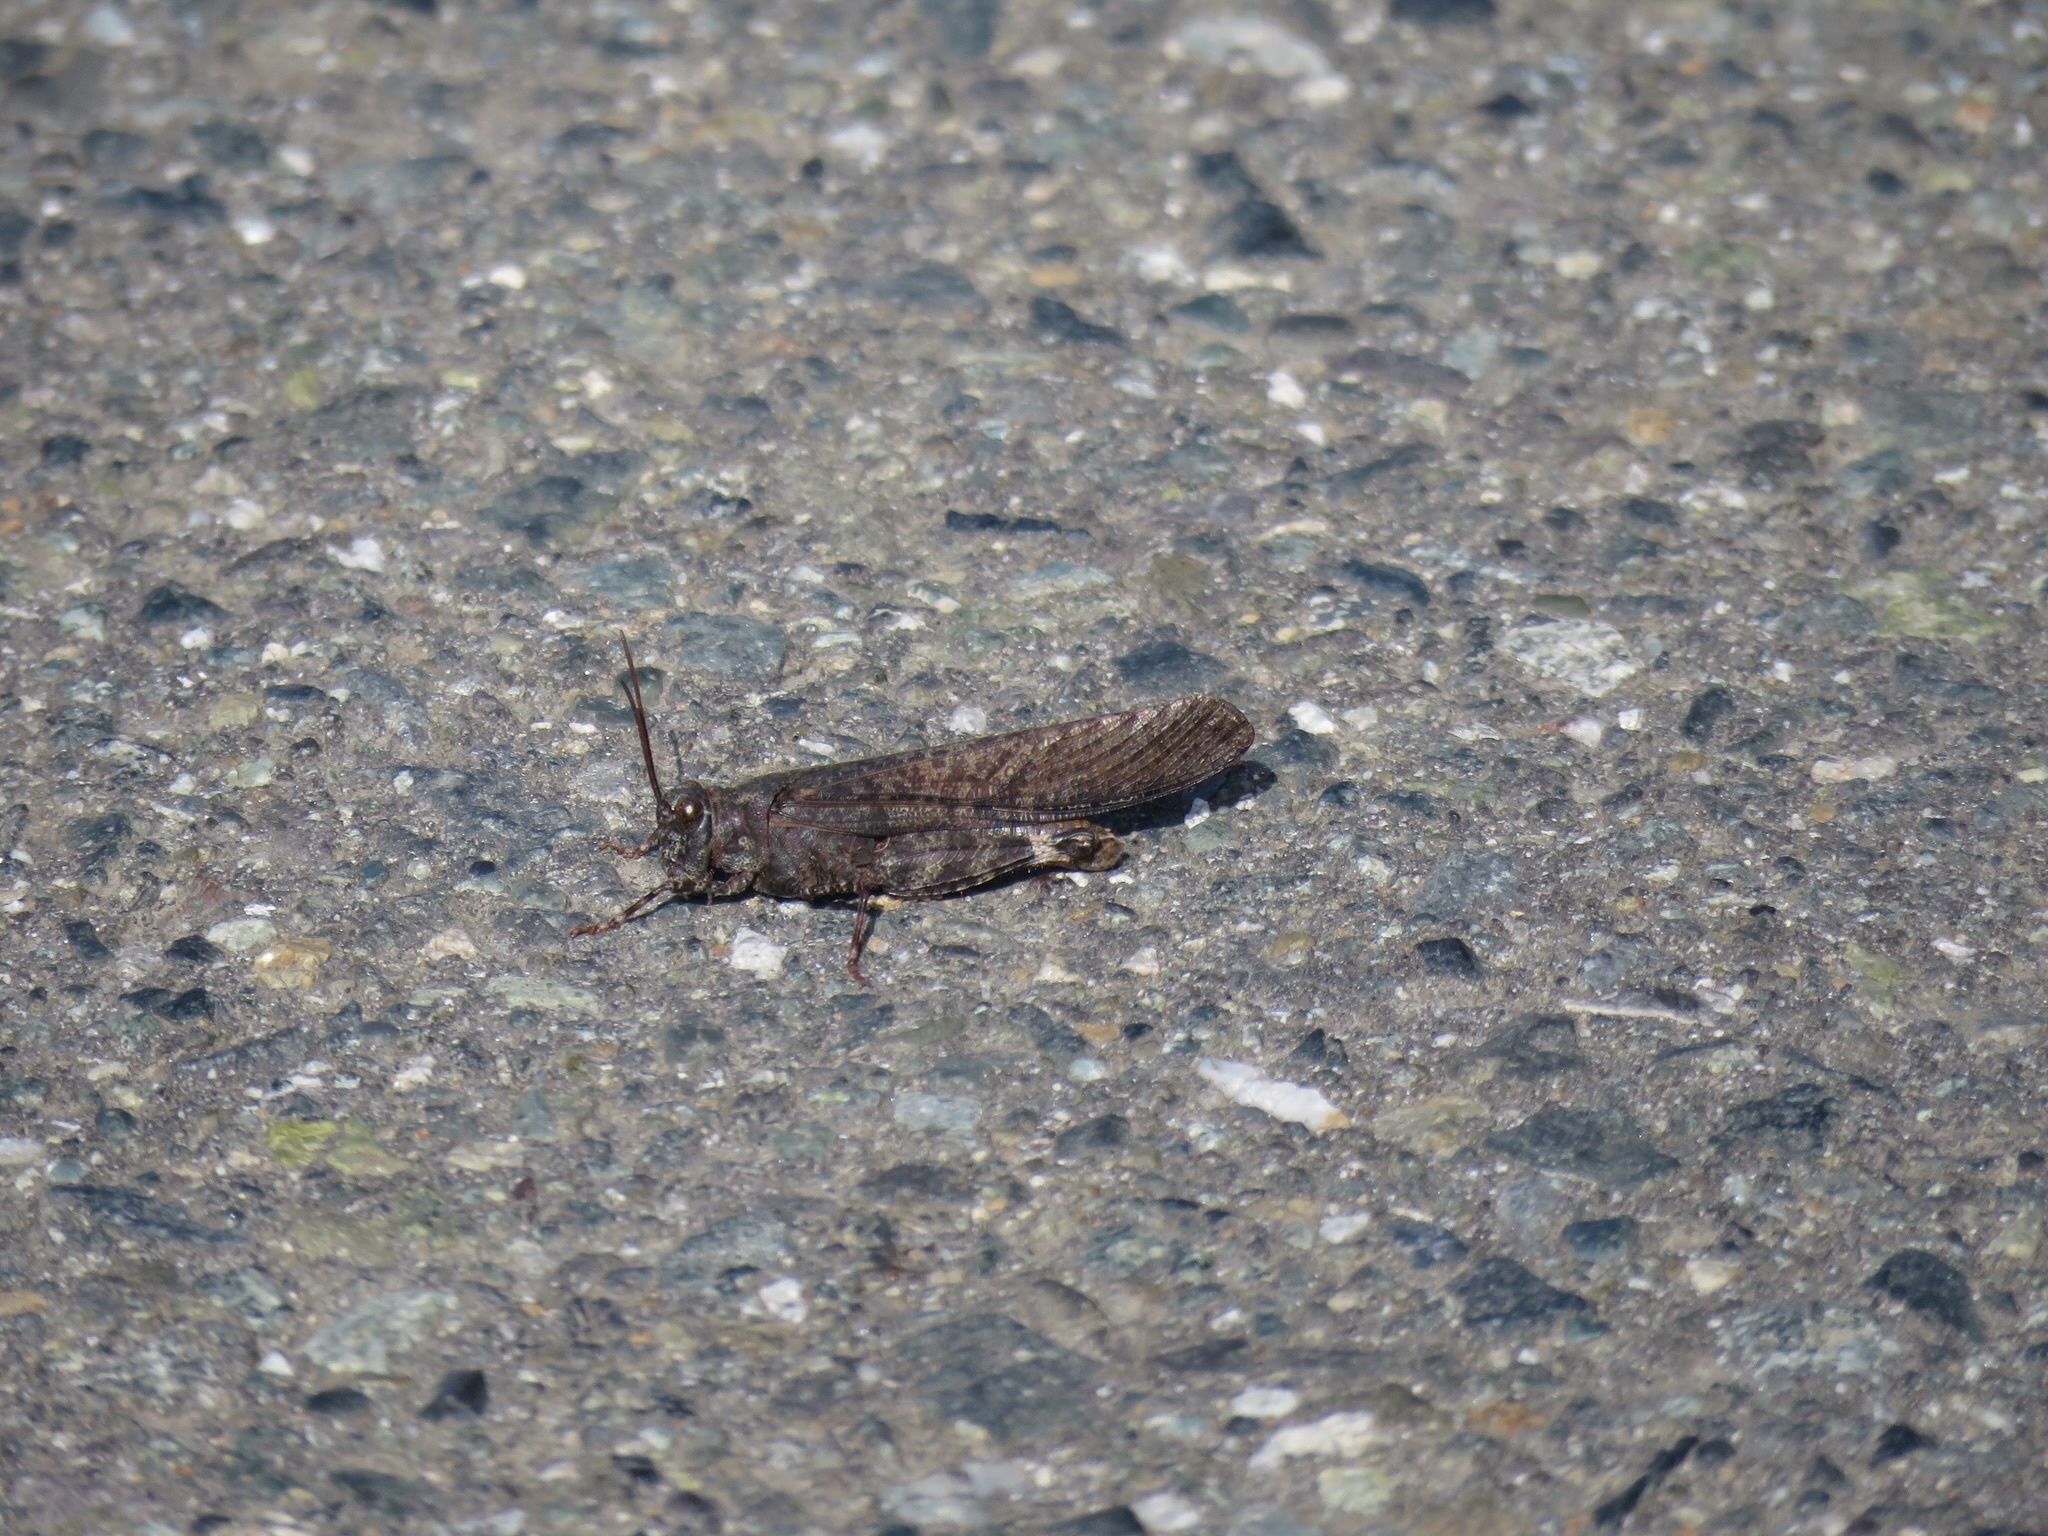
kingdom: Animalia
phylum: Arthropoda
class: Insecta
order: Orthoptera
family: Acrididae
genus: Trimerotropis
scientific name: Trimerotropis verruculata
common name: Crackling forest grasshopper
